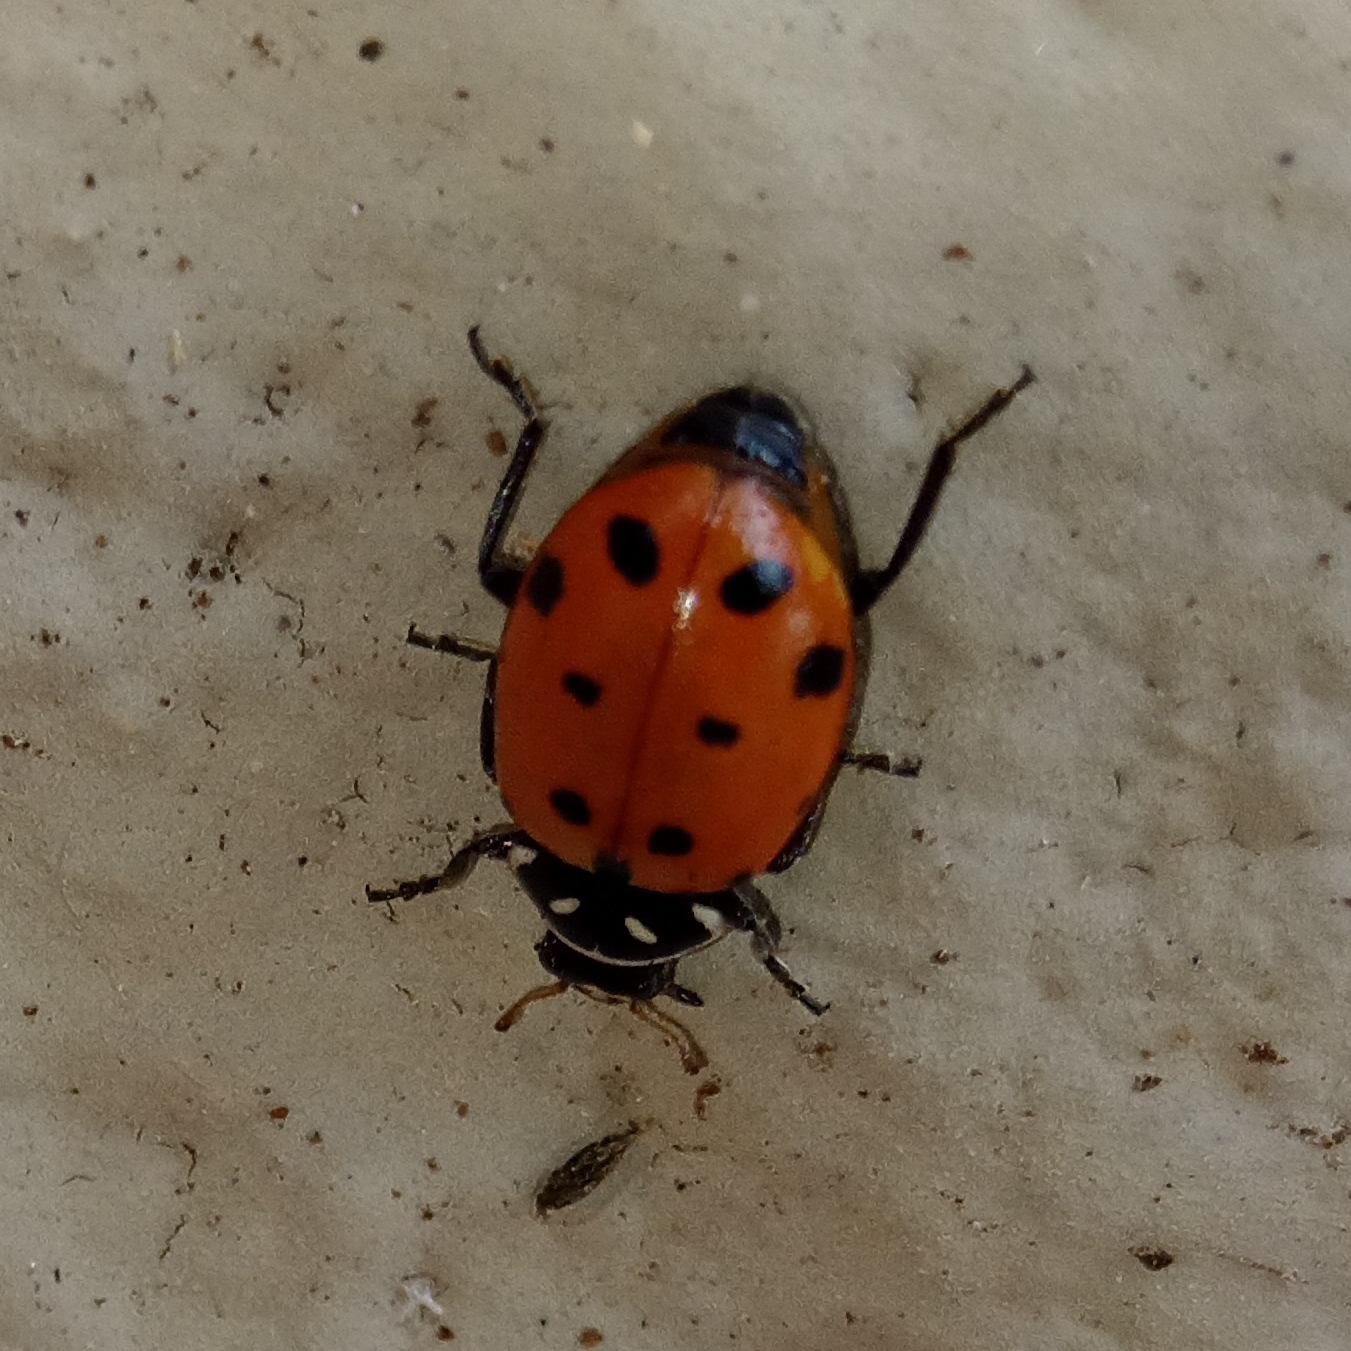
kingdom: Animalia
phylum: Arthropoda
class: Insecta
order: Coleoptera
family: Coccinellidae
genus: Hippodamia
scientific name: Hippodamia convergens
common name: Convergent lady beetle
